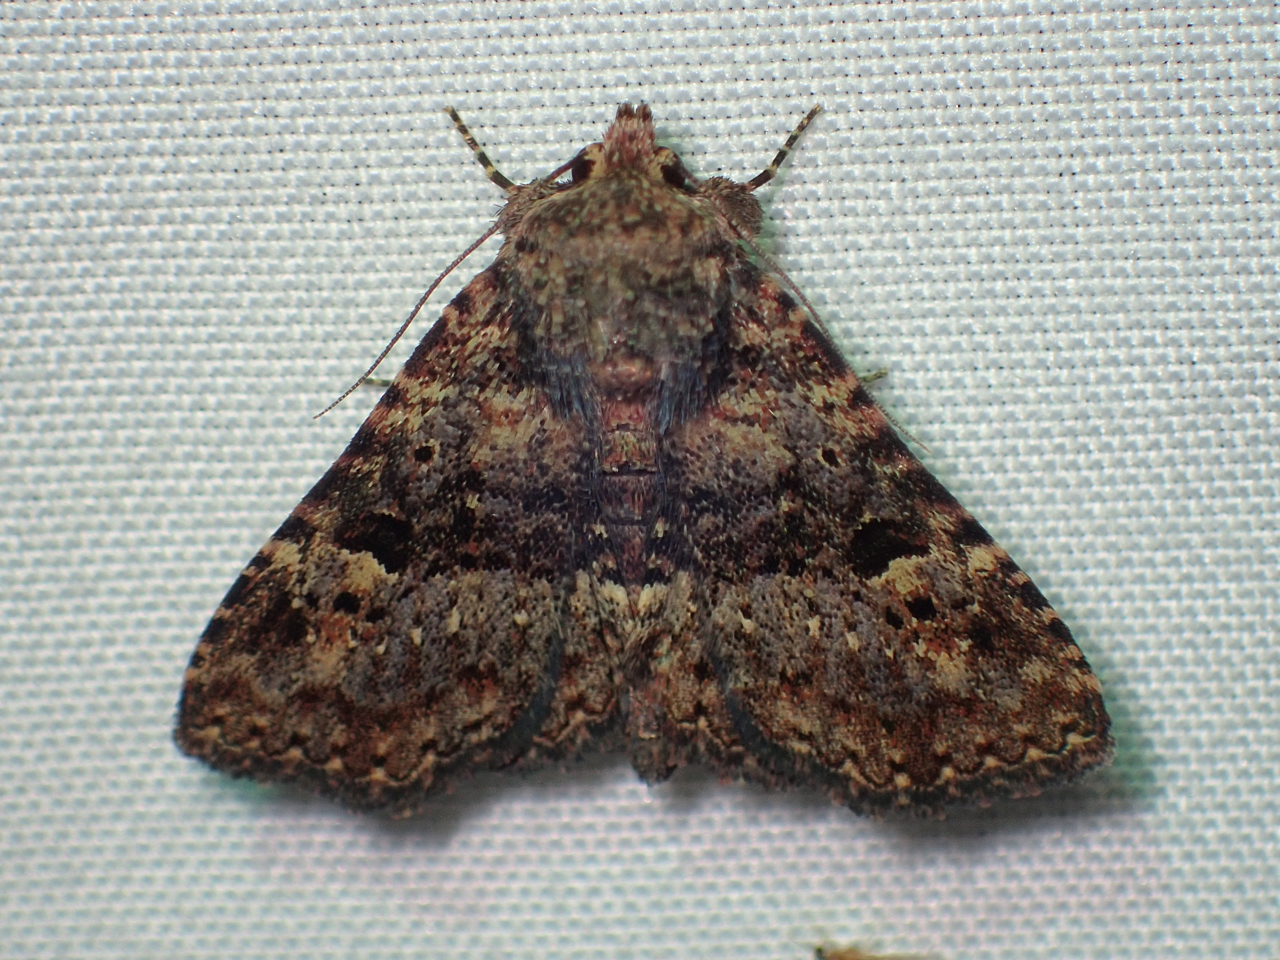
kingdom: Animalia
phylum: Arthropoda
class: Insecta
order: Lepidoptera
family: Erebidae
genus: Metalectra
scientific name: Metalectra discalis
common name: Common fungus moth
